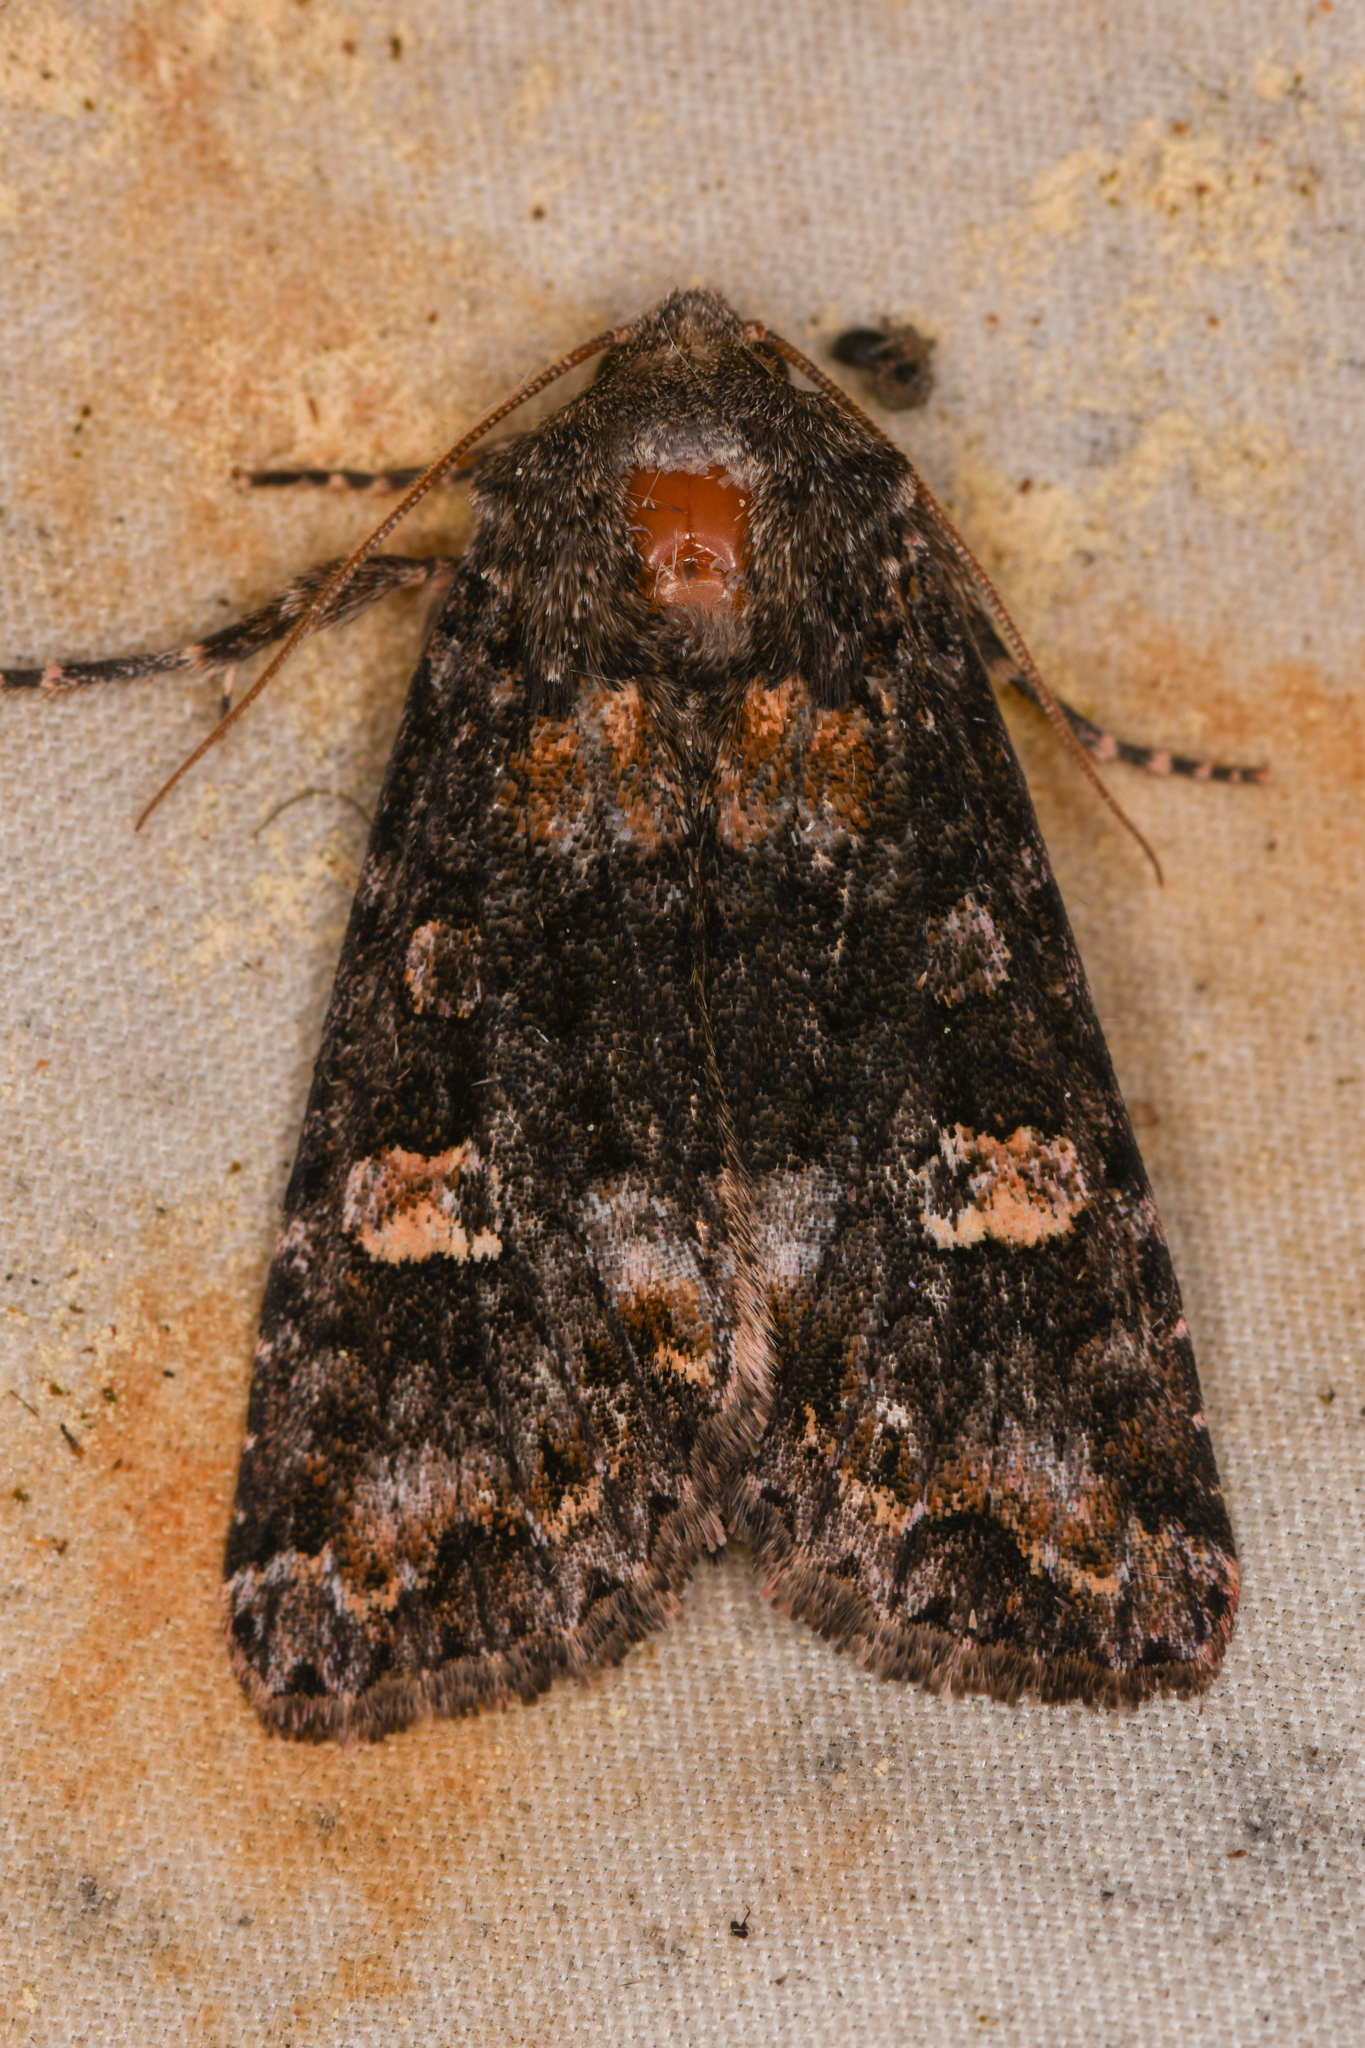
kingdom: Animalia
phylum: Arthropoda
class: Insecta
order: Lepidoptera
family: Noctuidae
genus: Spiramater
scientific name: Spiramater lutra
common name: Otter spiramater moth
